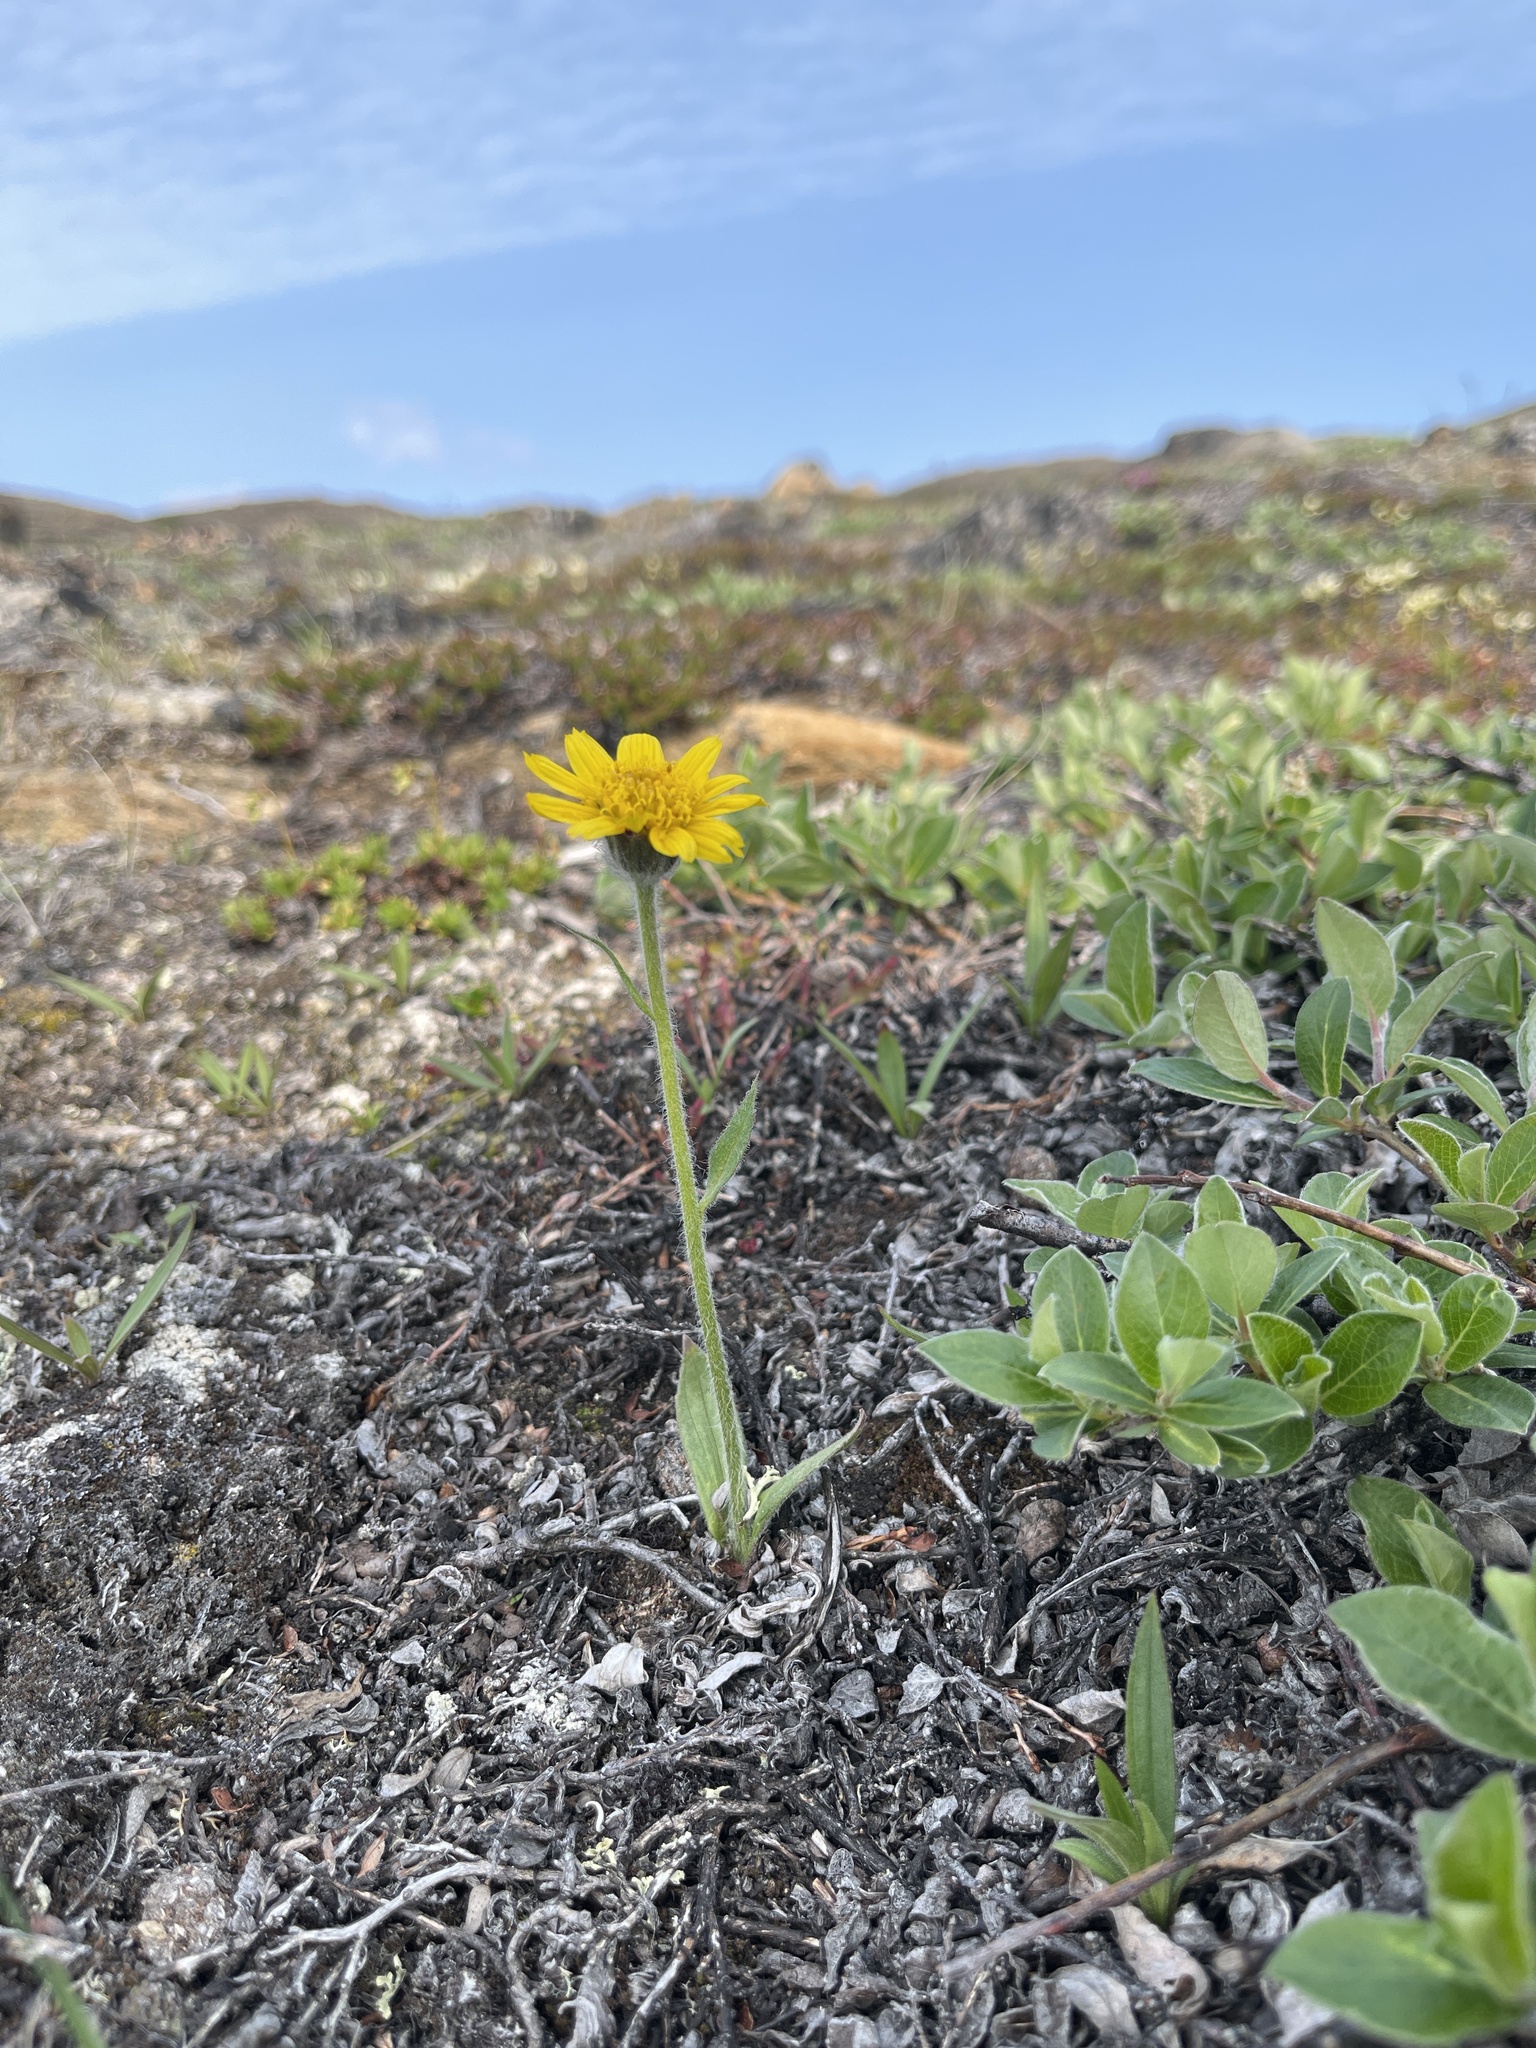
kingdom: Plantae
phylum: Tracheophyta
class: Magnoliopsida
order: Asterales
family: Asteraceae
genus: Arnica
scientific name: Arnica angustifolia
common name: Arctic arnica
